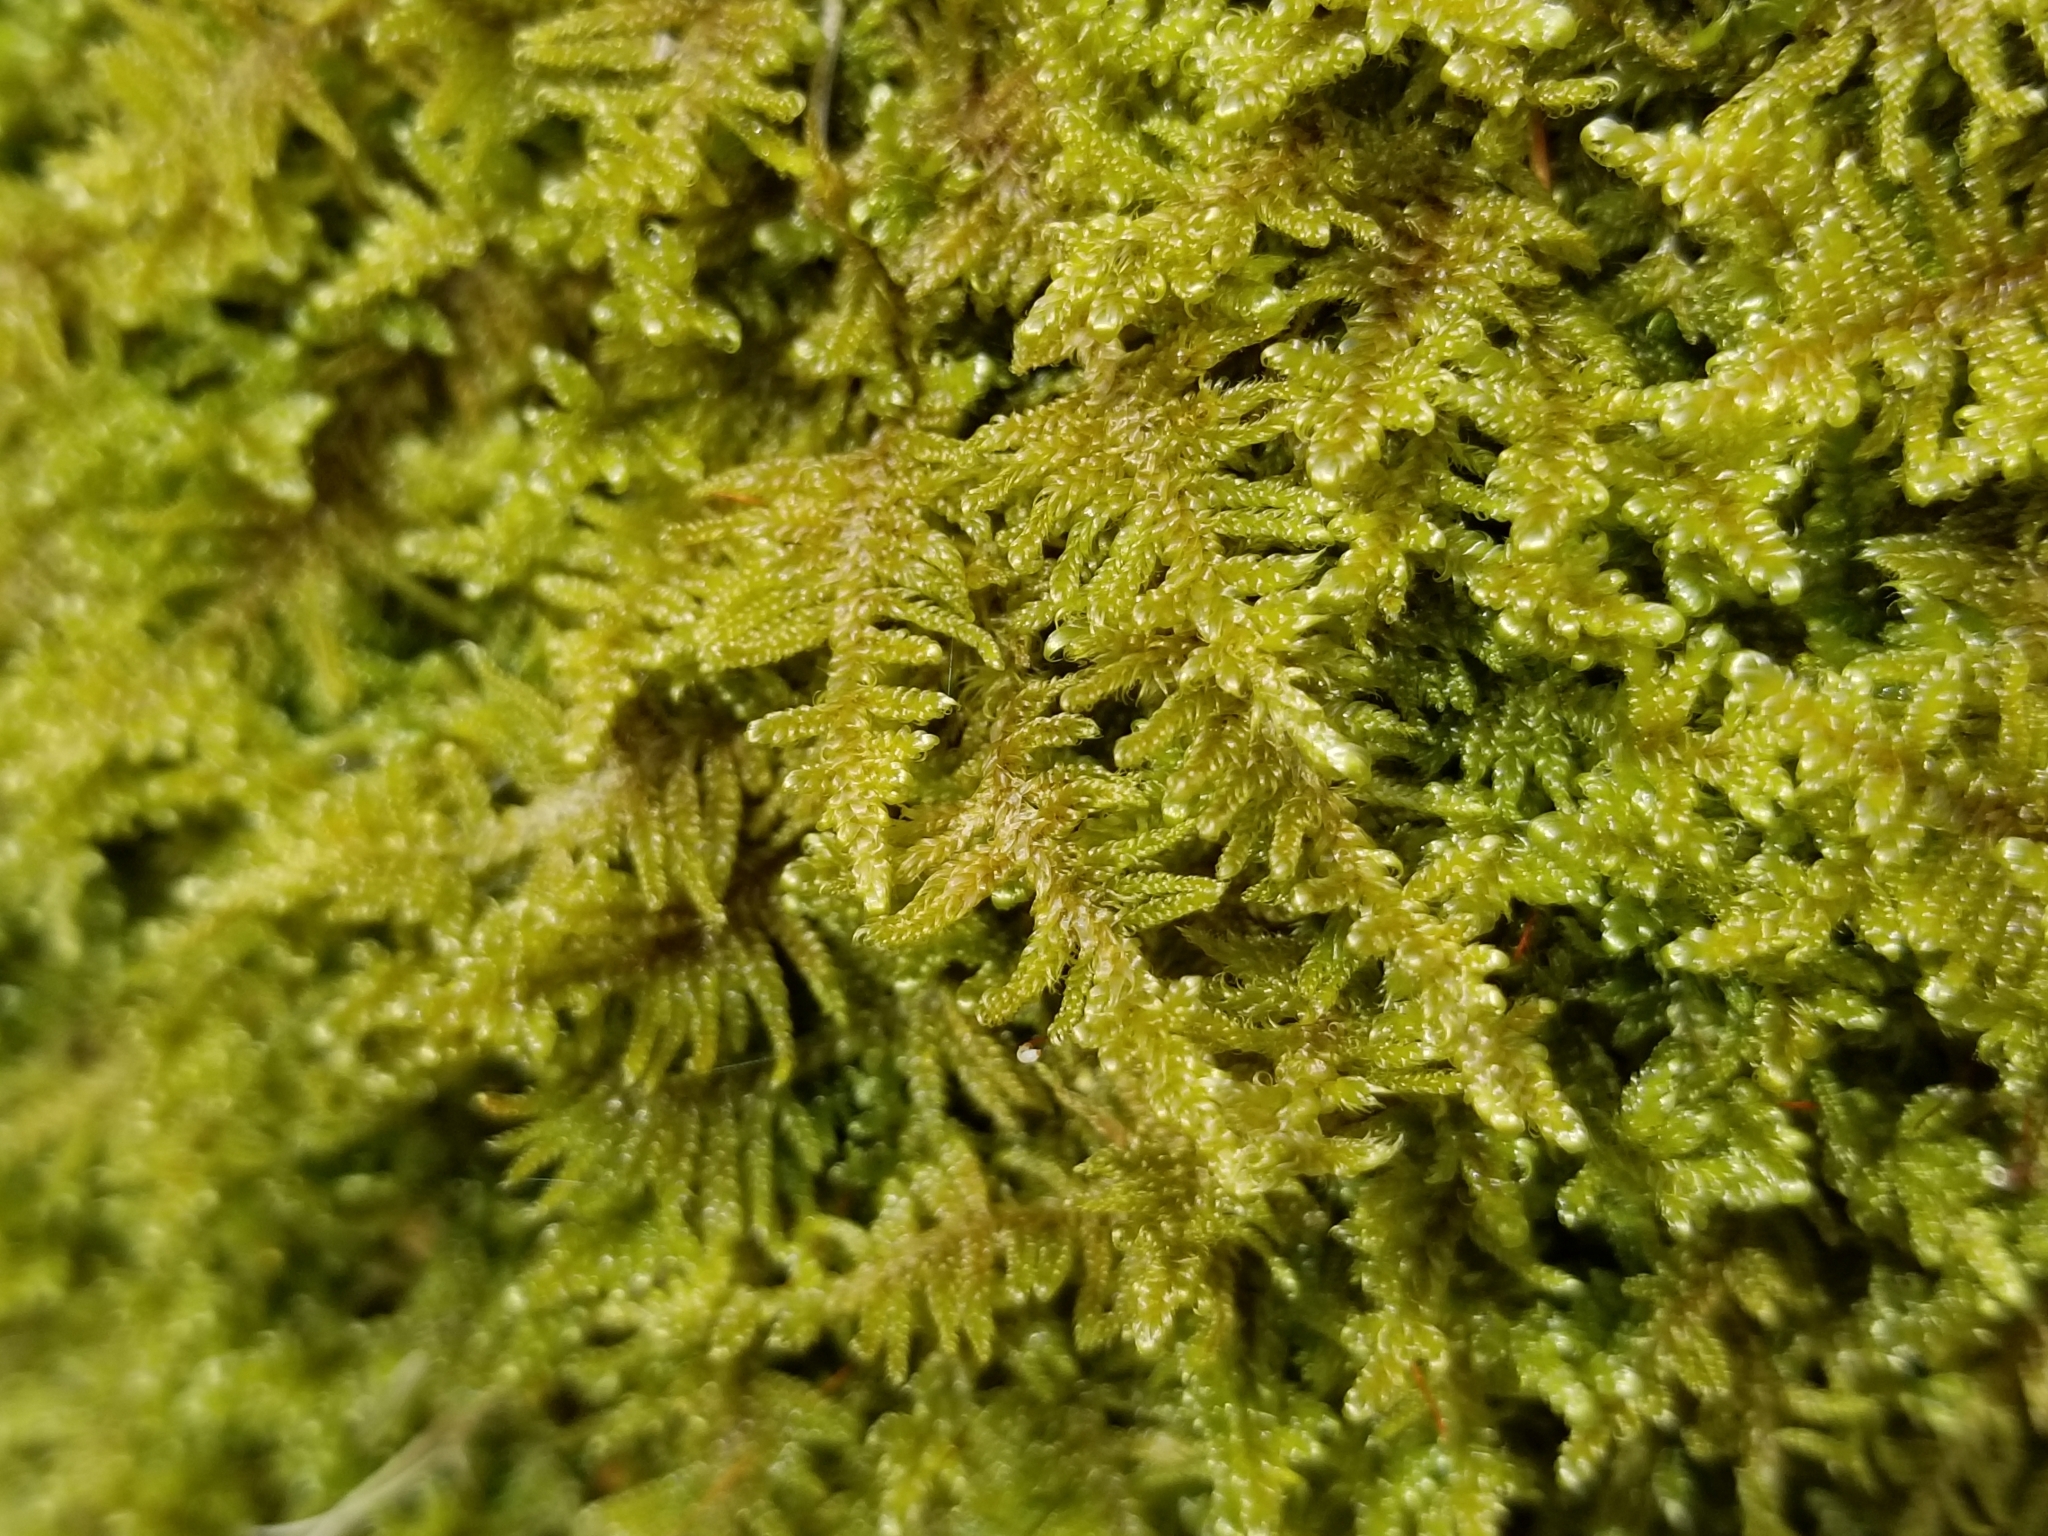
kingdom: Plantae
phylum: Bryophyta
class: Bryopsida
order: Hypnales
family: Callicladiaceae
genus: Callicladium
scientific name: Callicladium imponens
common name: Brocade moss
